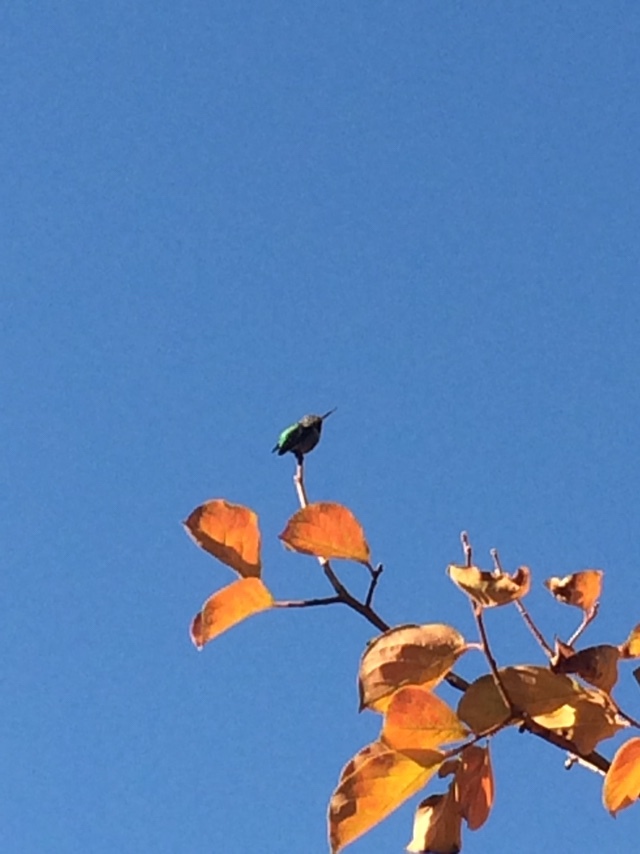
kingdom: Animalia
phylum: Chordata
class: Aves
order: Apodiformes
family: Trochilidae
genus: Calypte
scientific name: Calypte anna
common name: Anna's hummingbird
